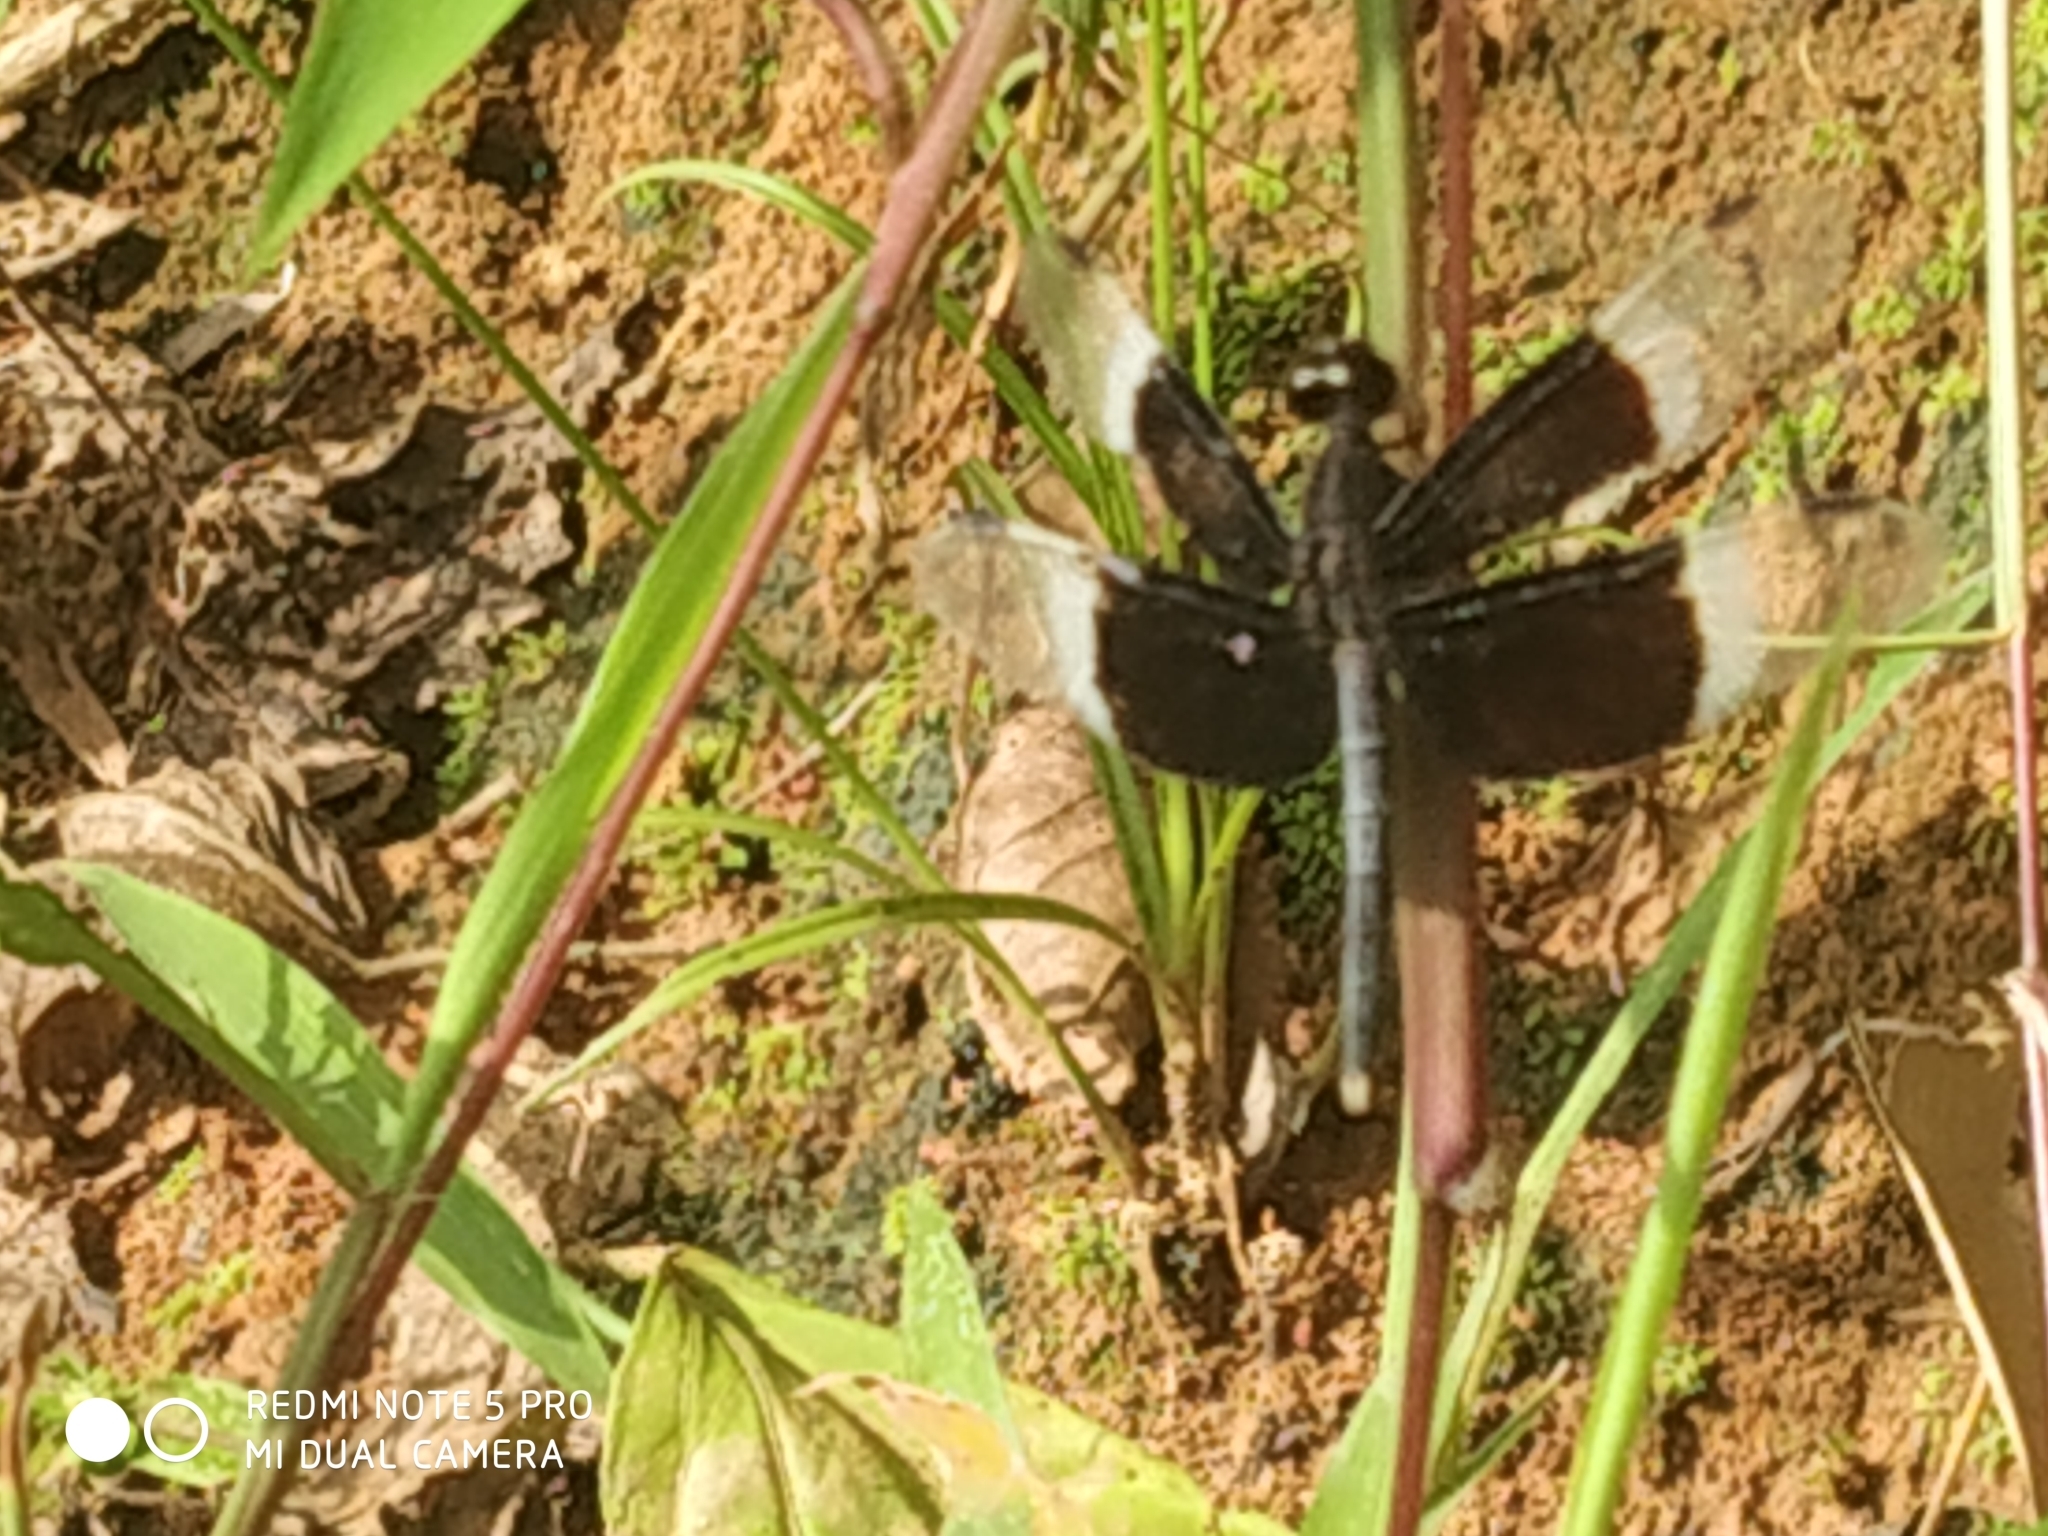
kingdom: Animalia
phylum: Arthropoda
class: Insecta
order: Odonata
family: Libellulidae
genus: Neurothemis
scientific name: Neurothemis tullia
